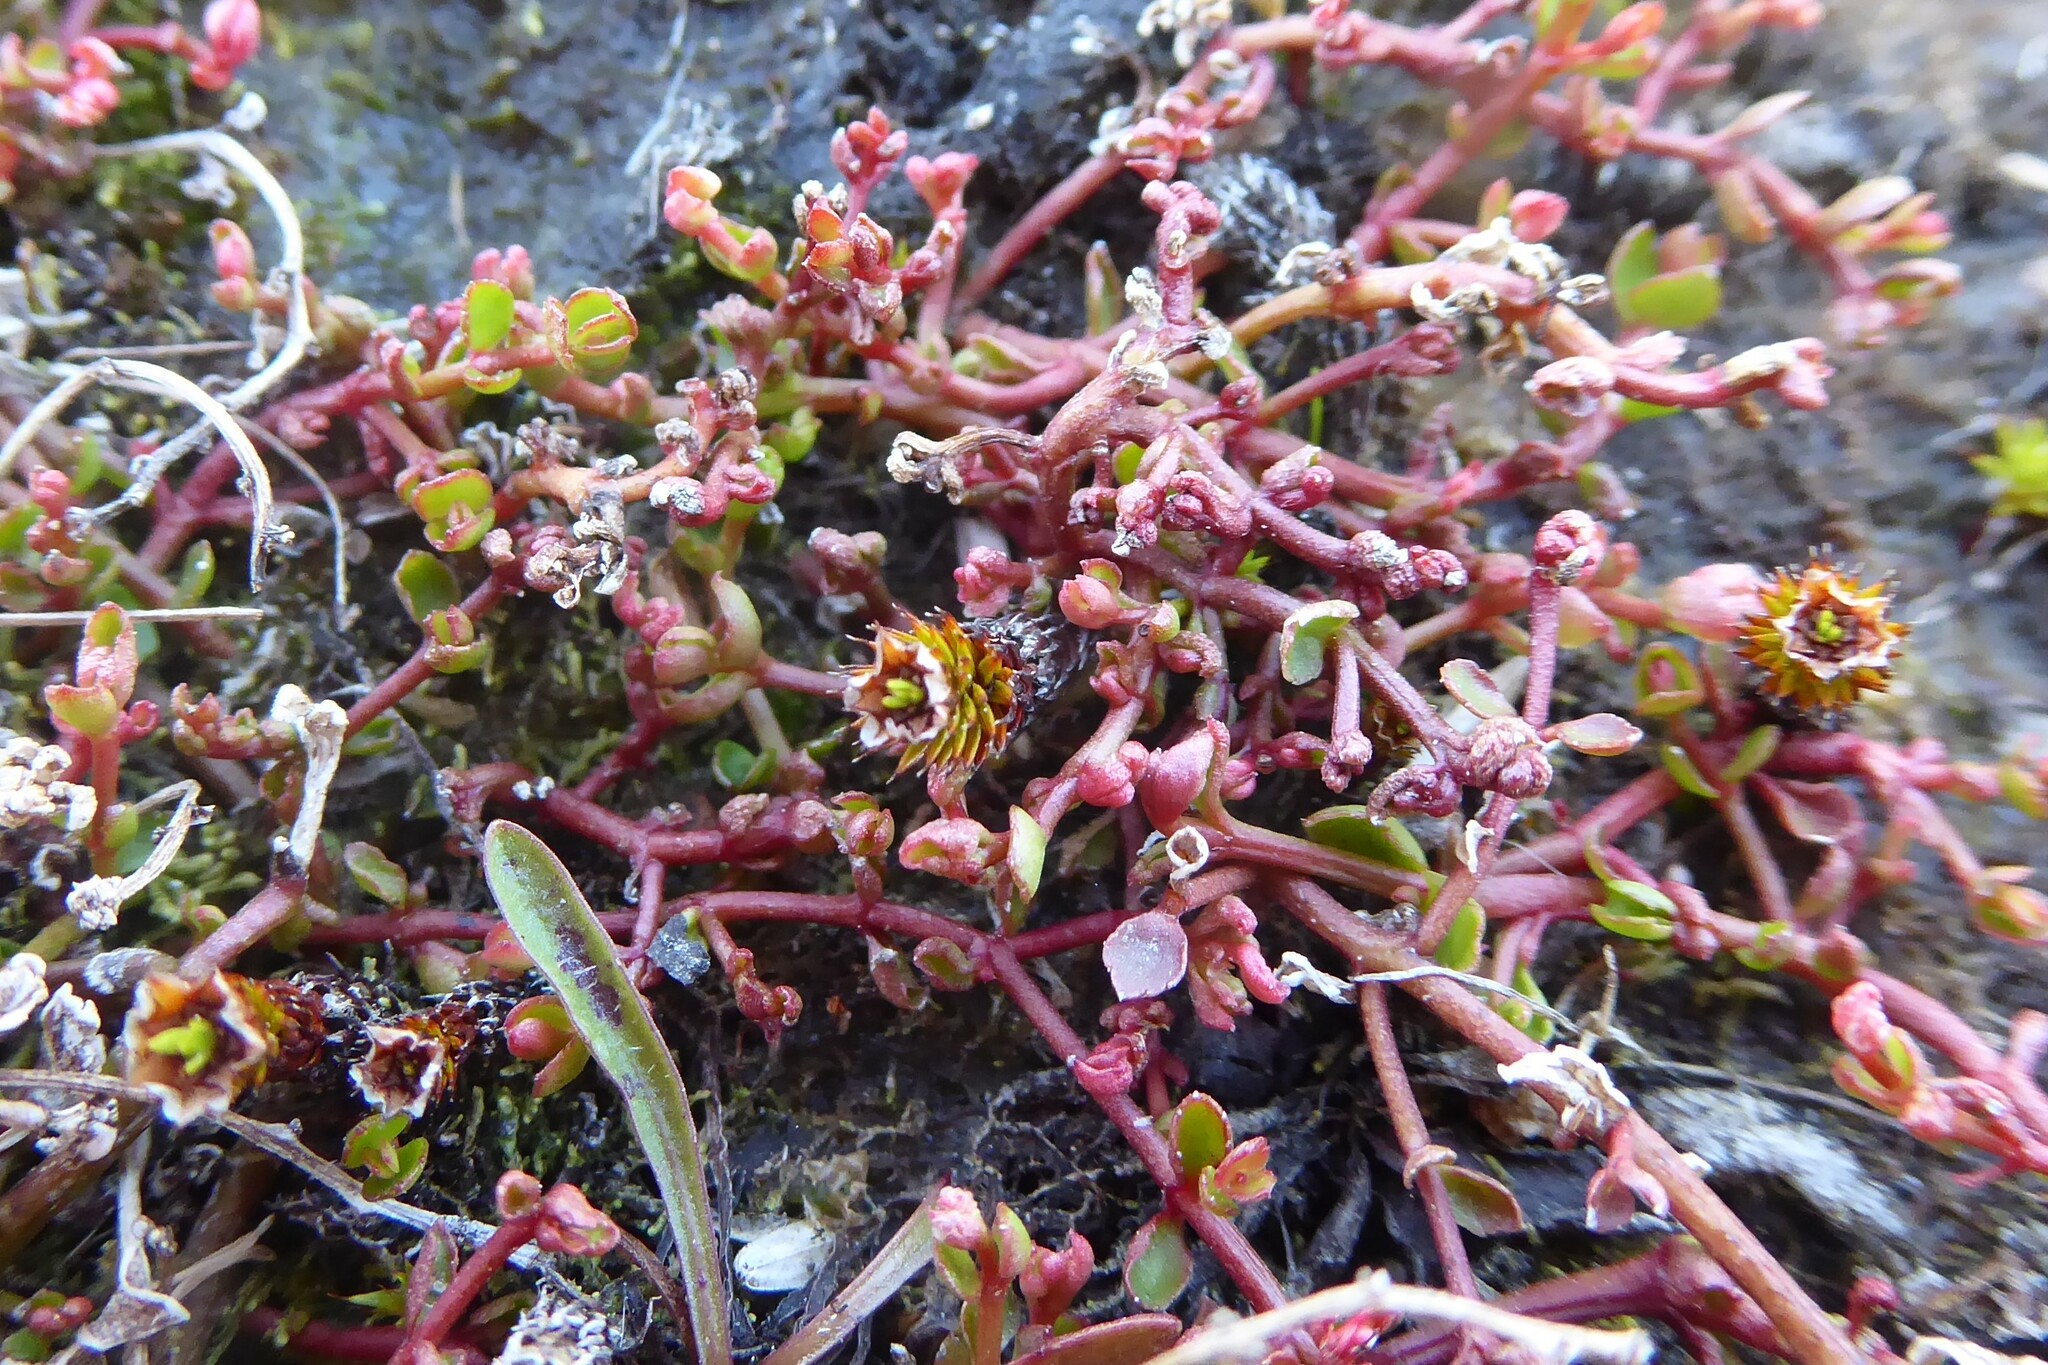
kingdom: Plantae
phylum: Tracheophyta
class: Magnoliopsida
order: Saxifragales
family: Haloragaceae
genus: Gonocarpus
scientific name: Gonocarpus micranthus
